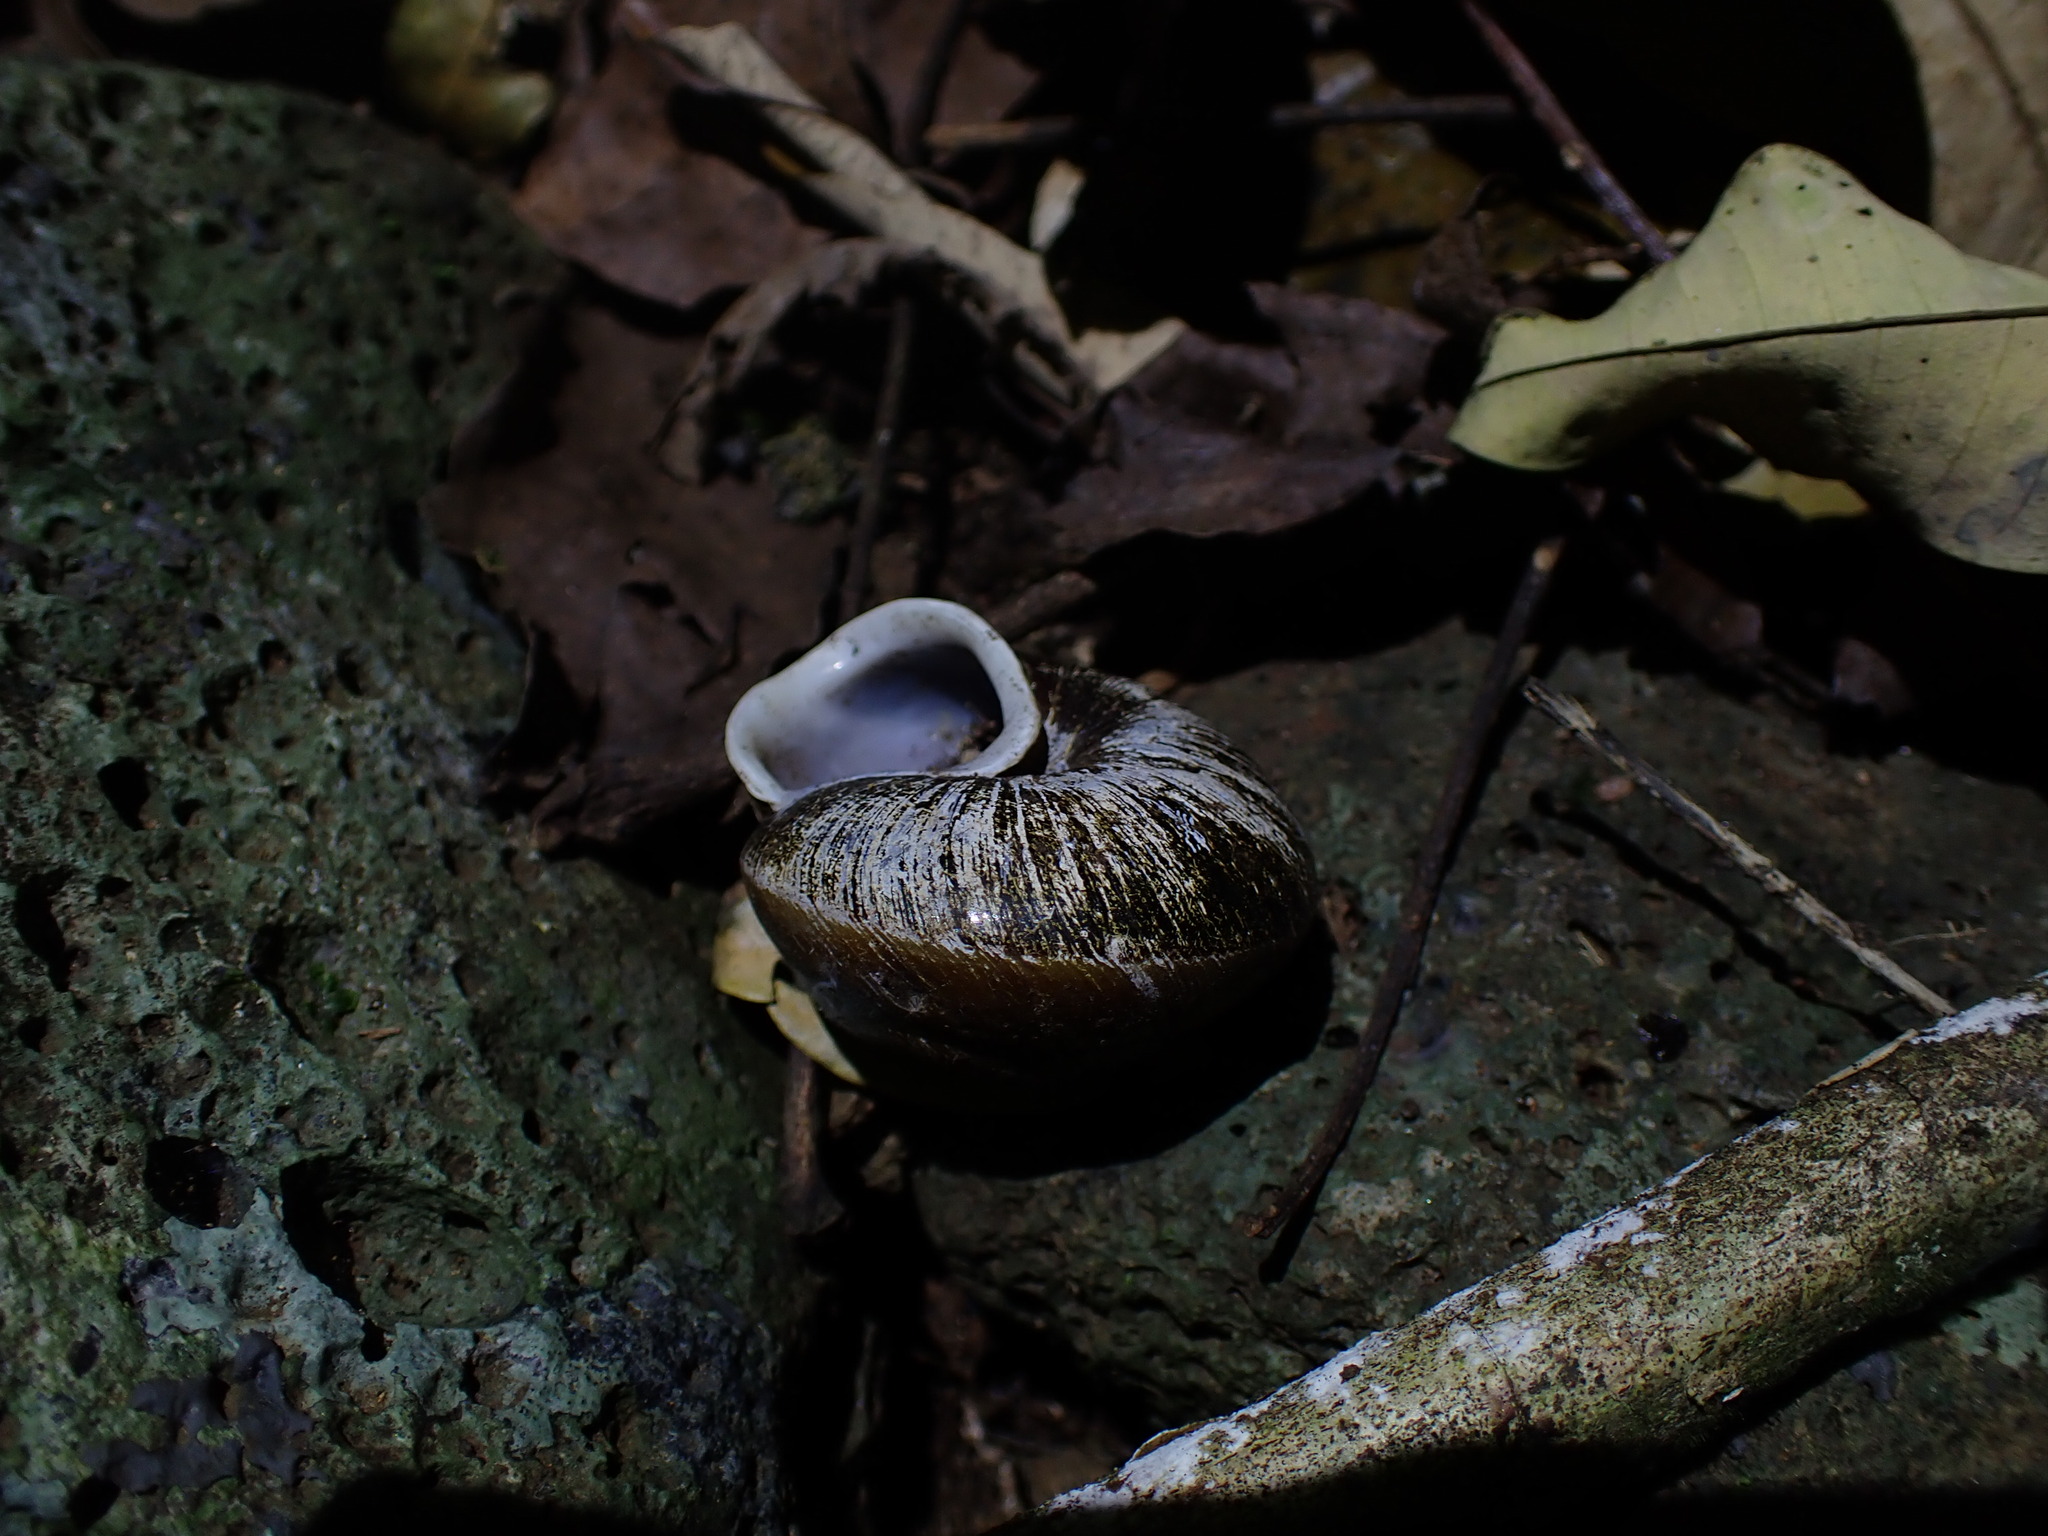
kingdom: Animalia
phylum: Mollusca
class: Gastropoda
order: Stylommatophora
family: Camaenidae
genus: Hadra
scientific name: Hadra webbi
